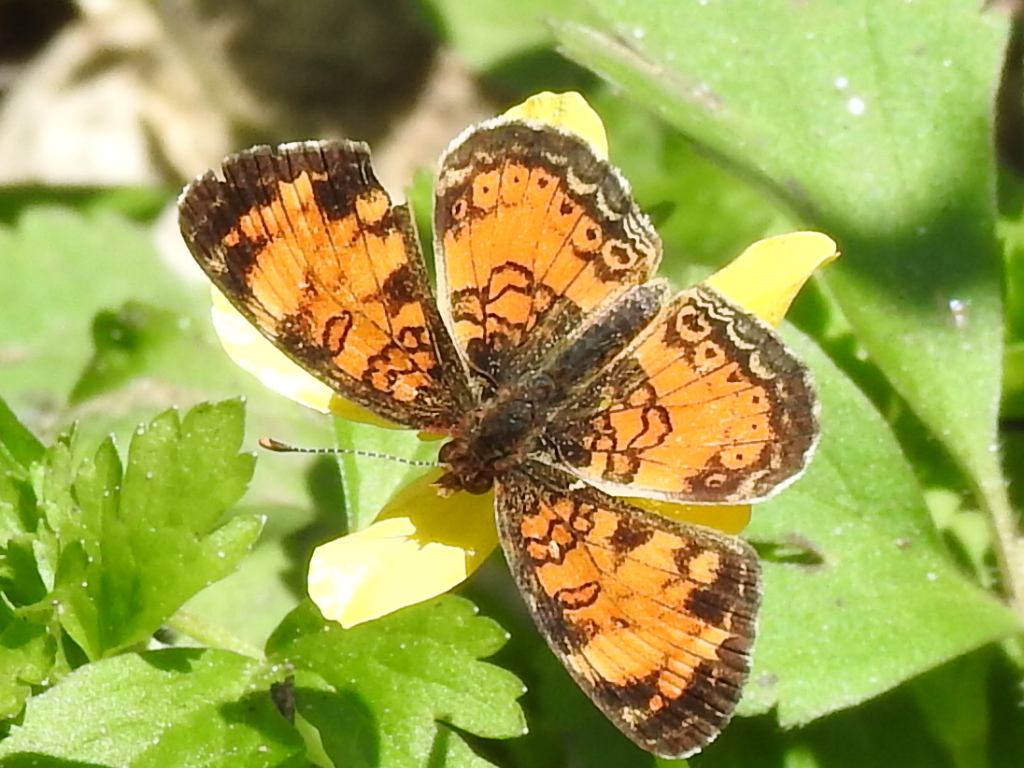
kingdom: Animalia
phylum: Arthropoda
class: Insecta
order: Lepidoptera
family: Nymphalidae
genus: Phyciodes
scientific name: Phyciodes tharos
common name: Pearl crescent
